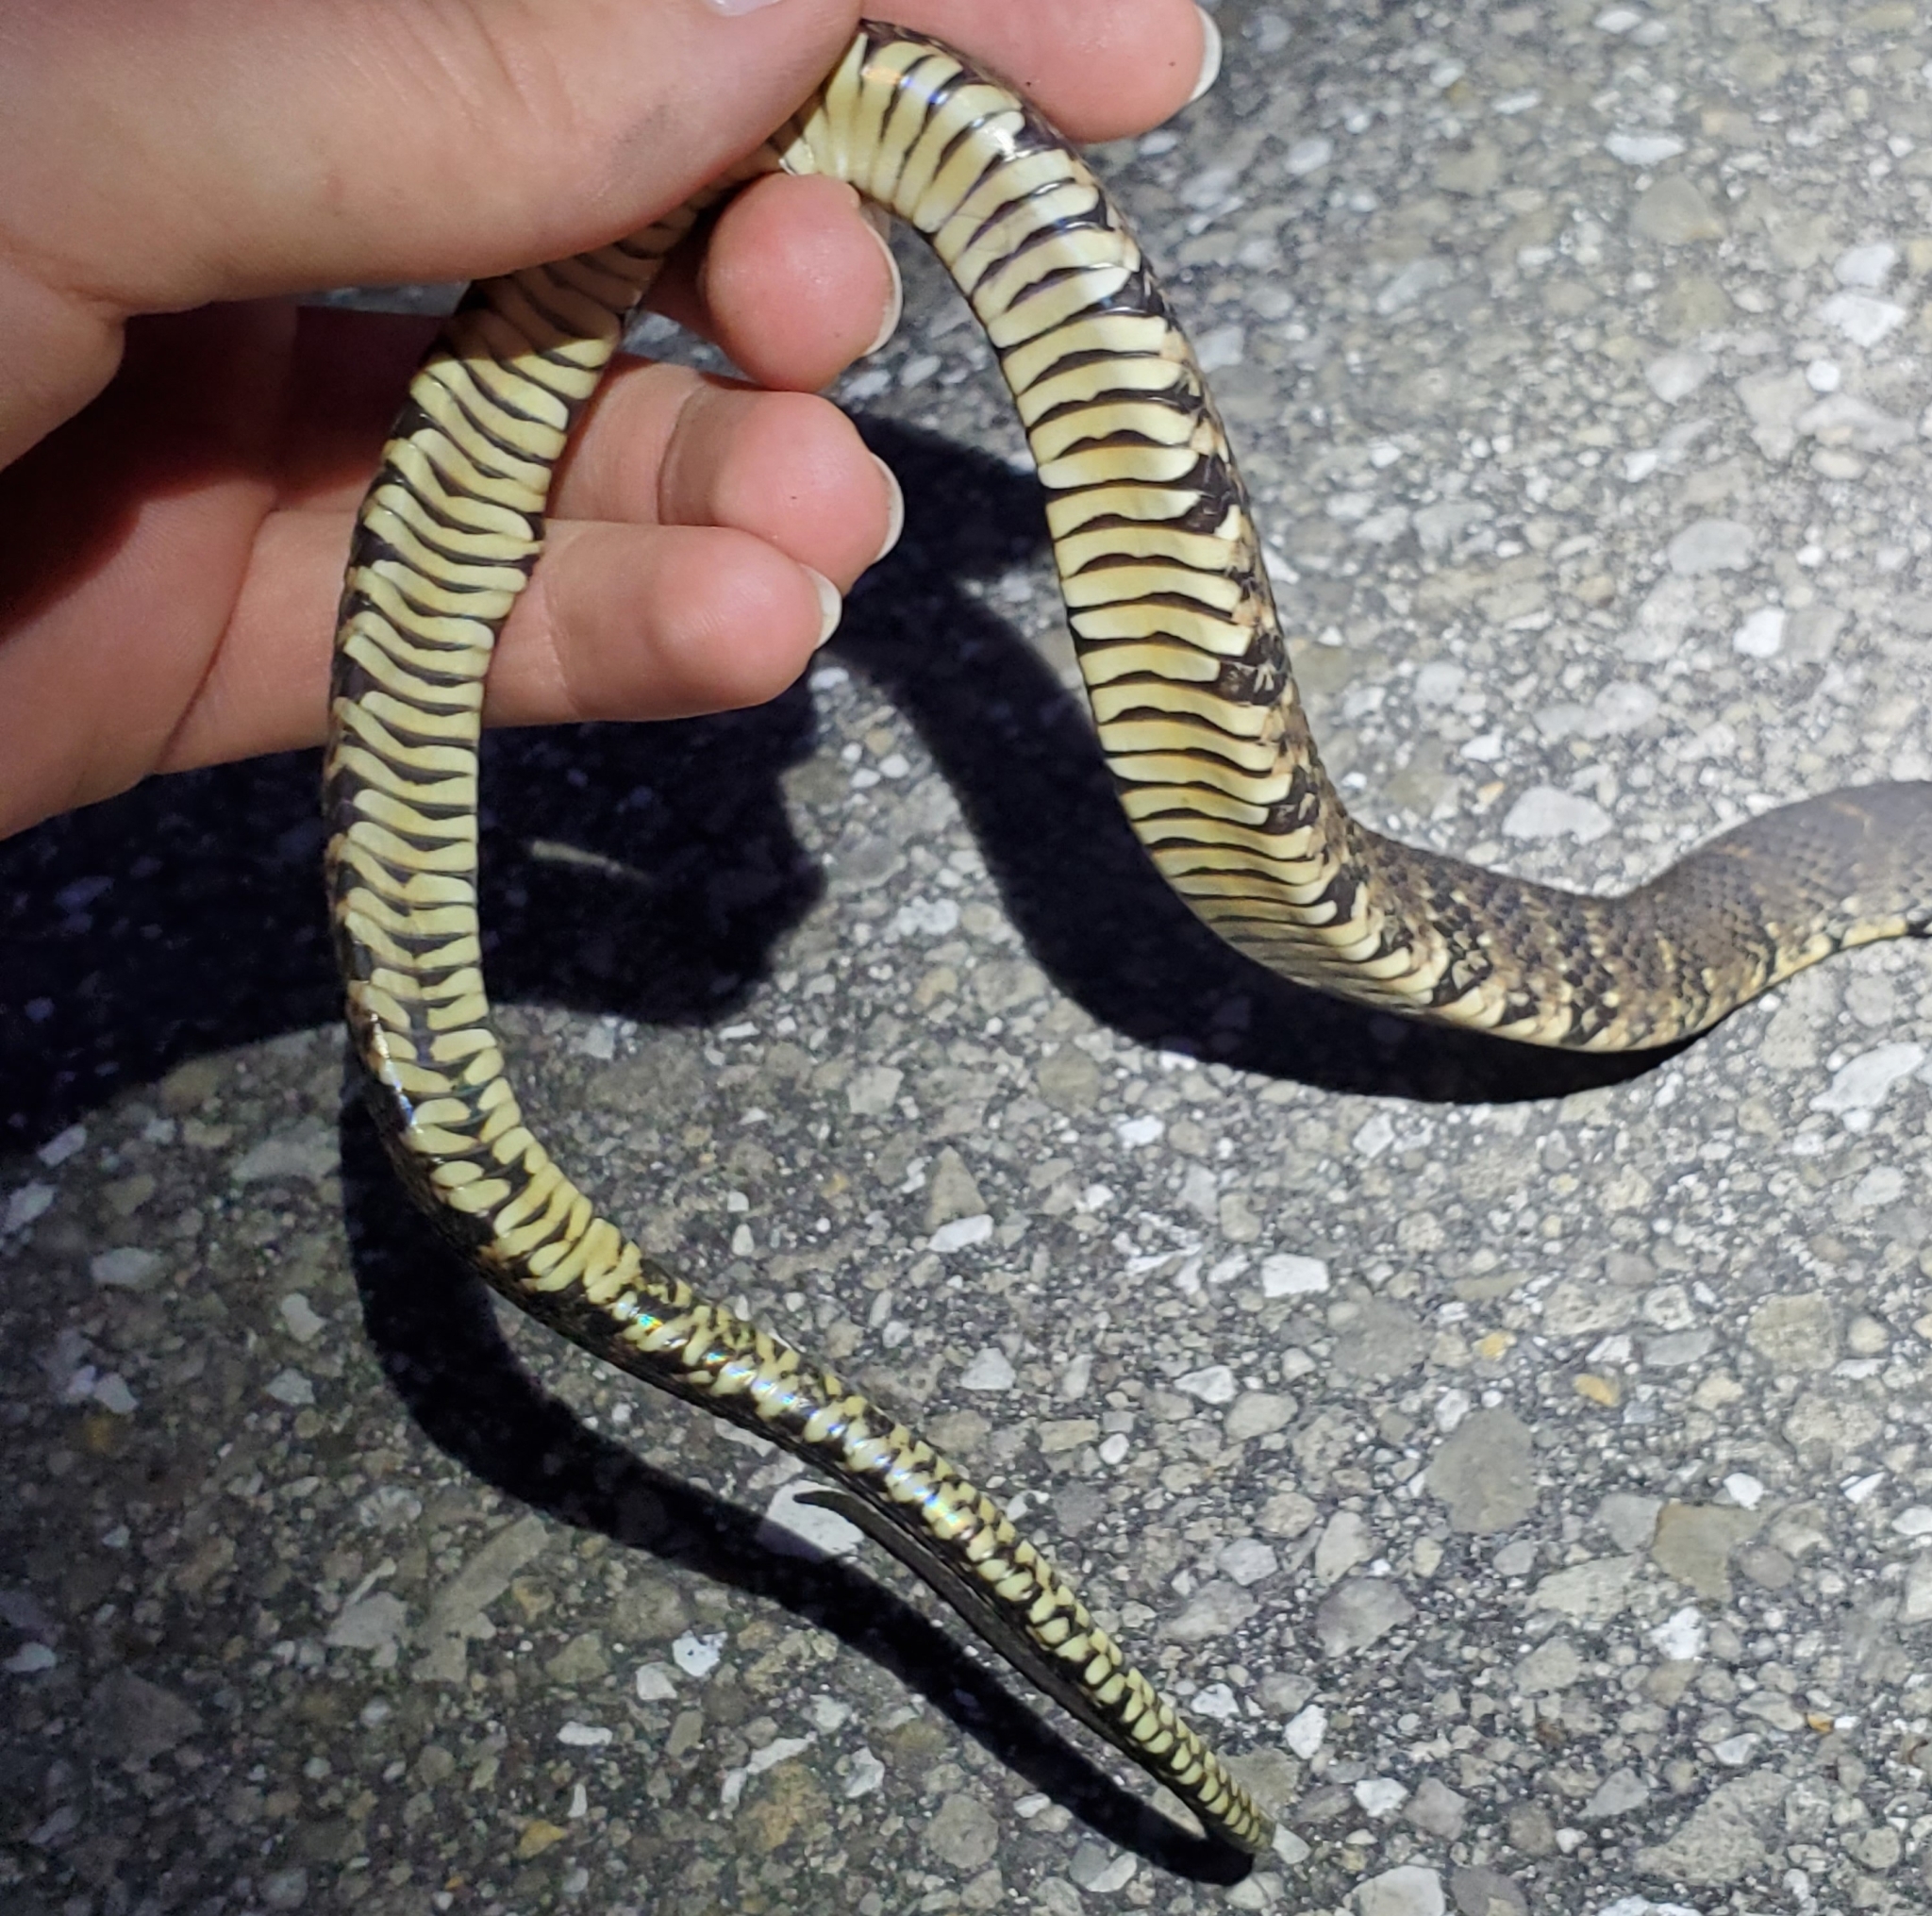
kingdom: Animalia
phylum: Chordata
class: Squamata
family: Colubridae
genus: Nerodia
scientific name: Nerodia fasciata
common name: Southern water snake
